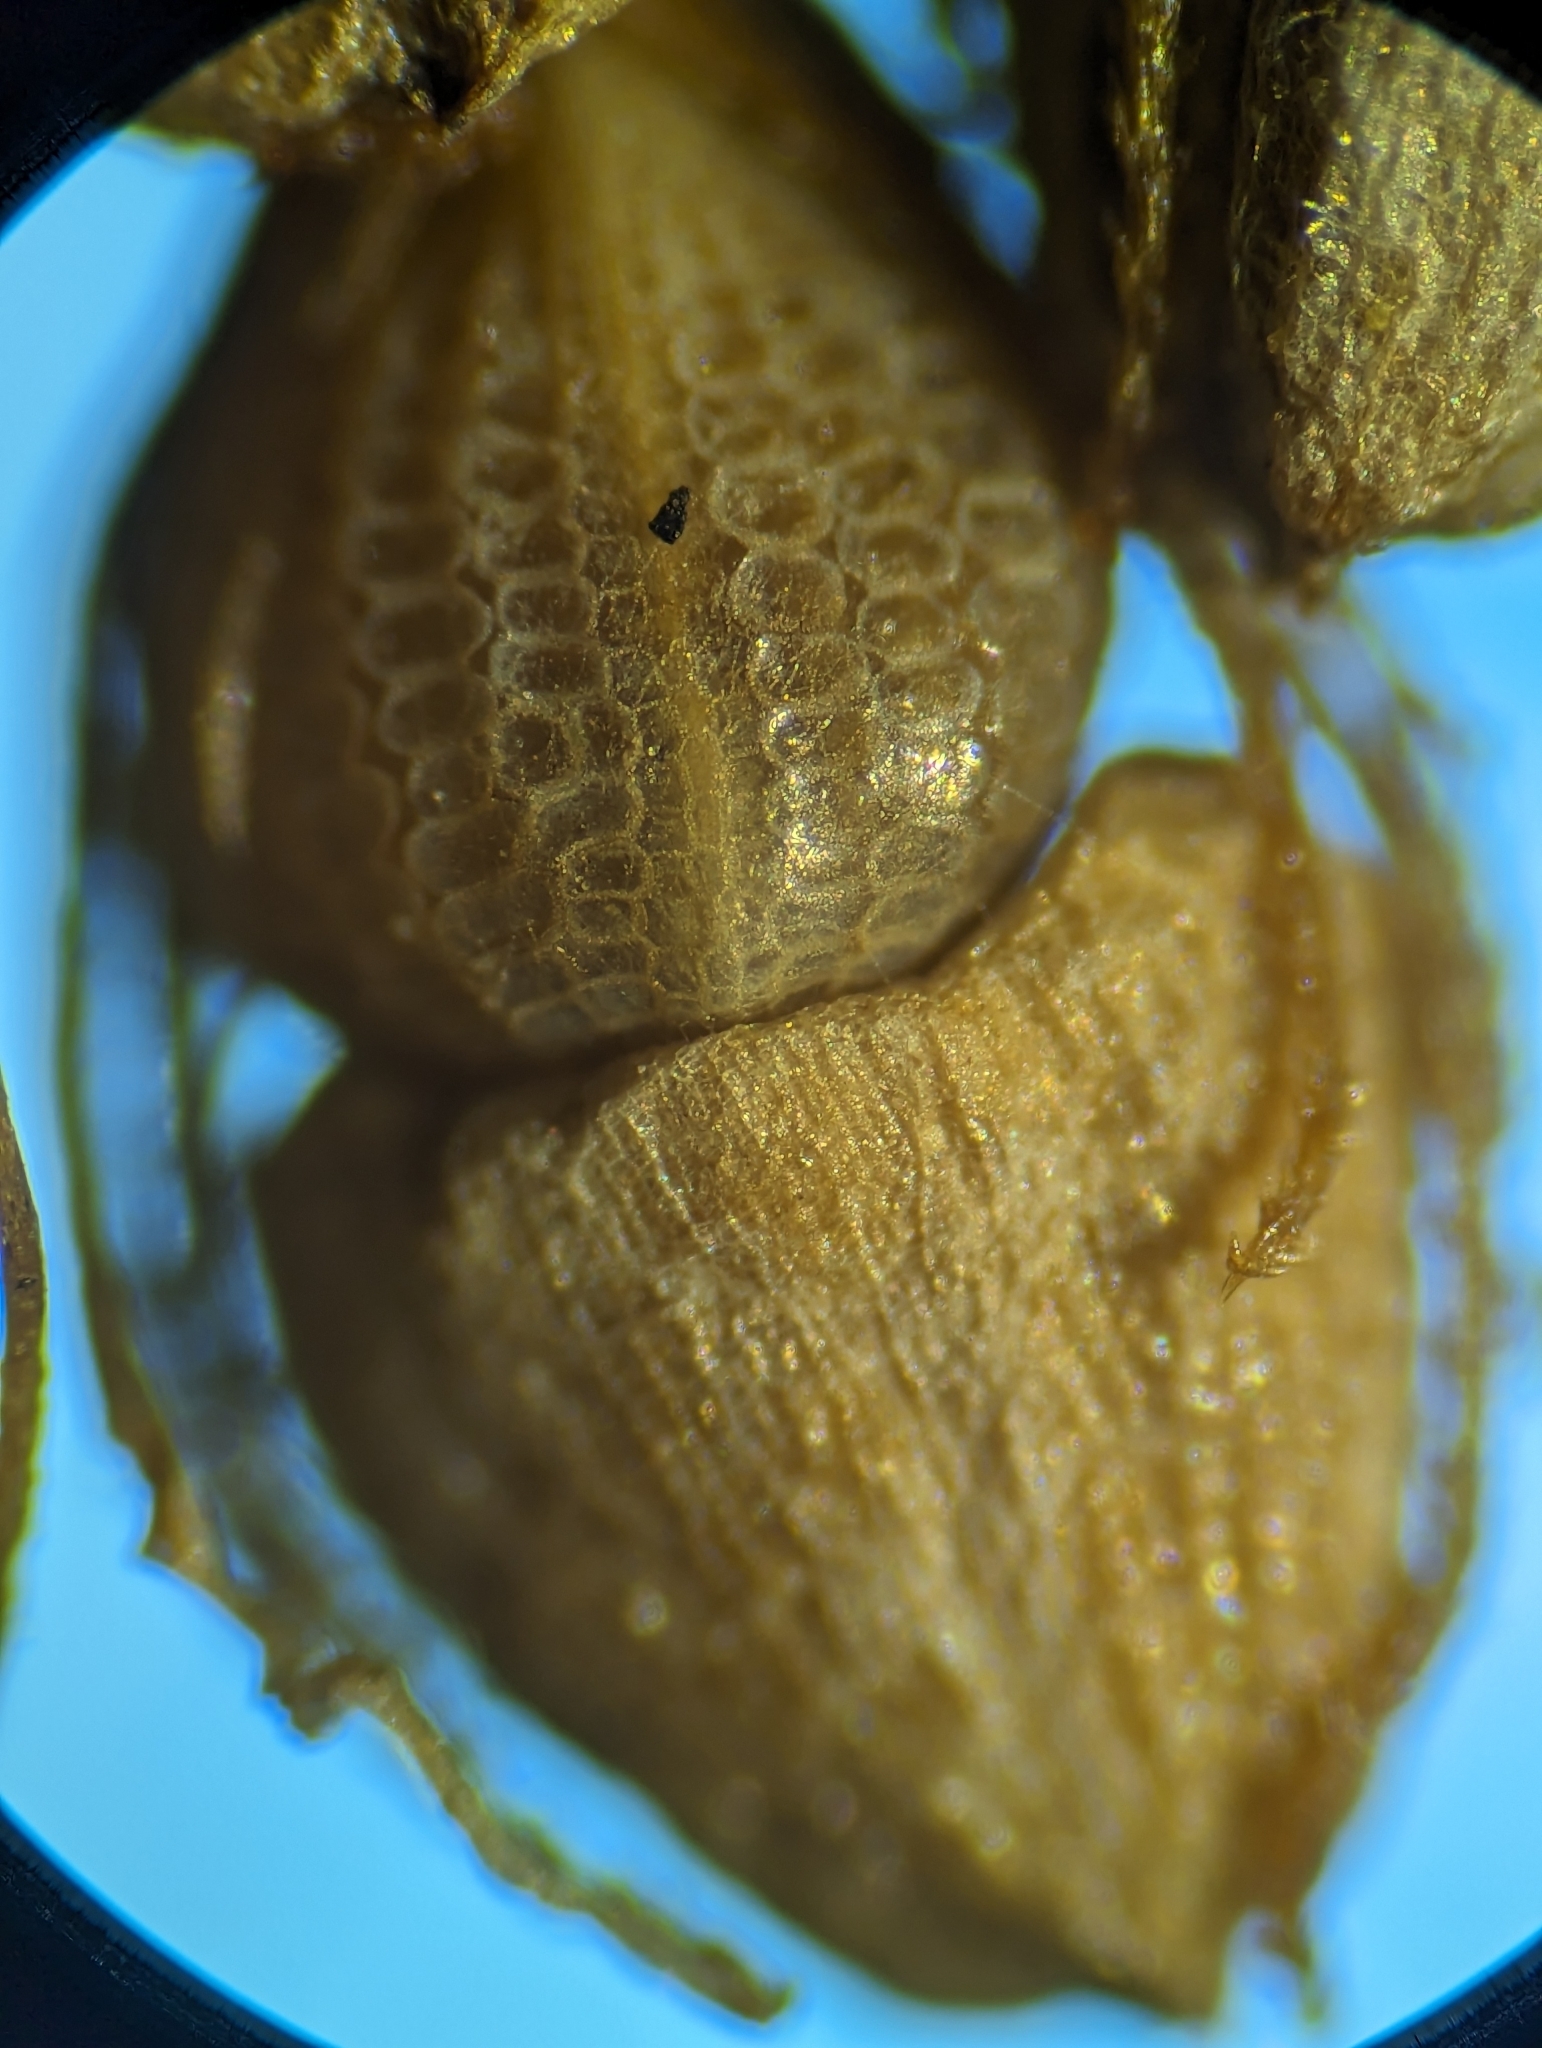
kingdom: Plantae
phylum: Tracheophyta
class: Liliopsida
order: Poales
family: Cyperaceae
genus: Eleocharis
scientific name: Eleocharis tuberculosa
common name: Cone-cup spikerush
